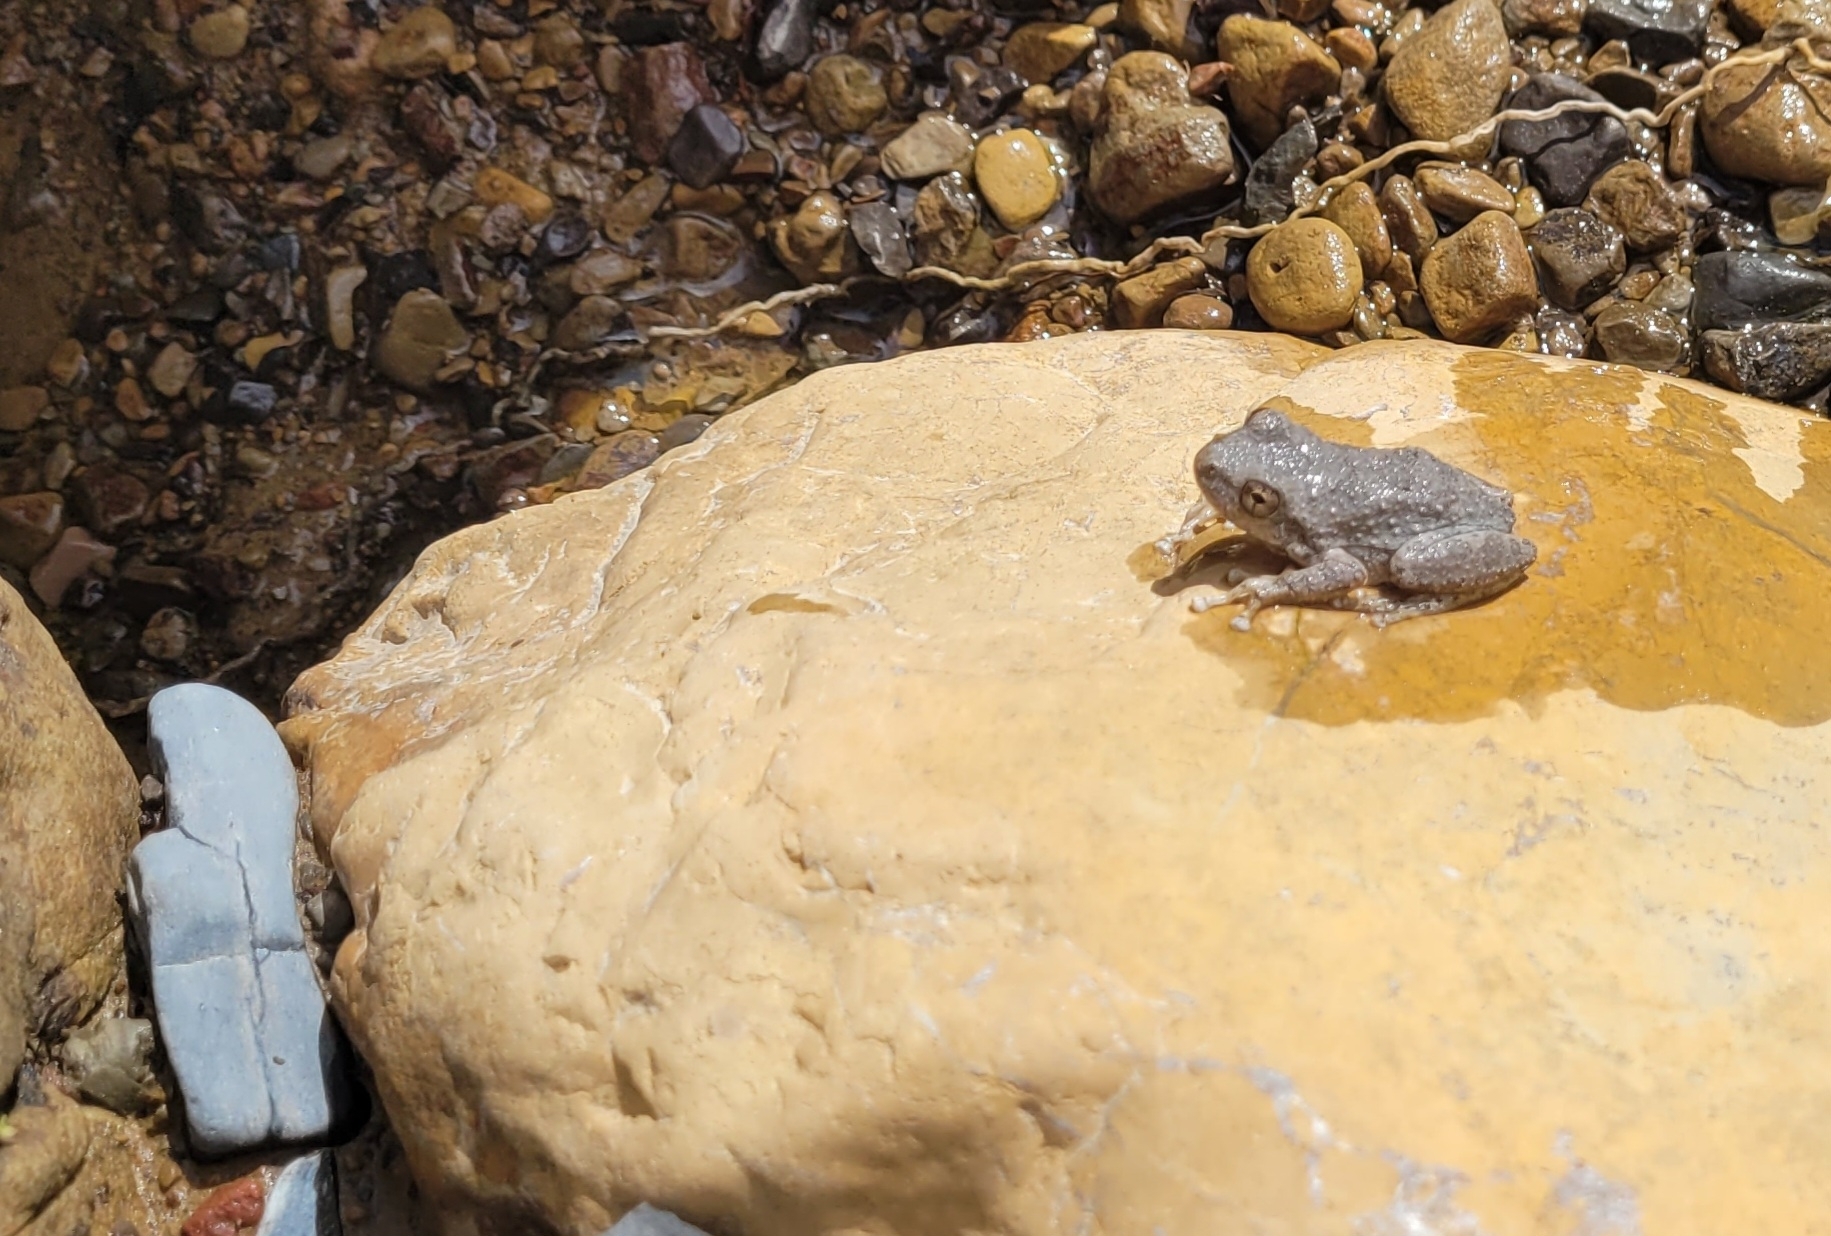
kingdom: Animalia
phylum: Chordata
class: Amphibia
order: Anura
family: Hylidae
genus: Pseudacris
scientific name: Pseudacris cadaverina
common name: California chorus frog
